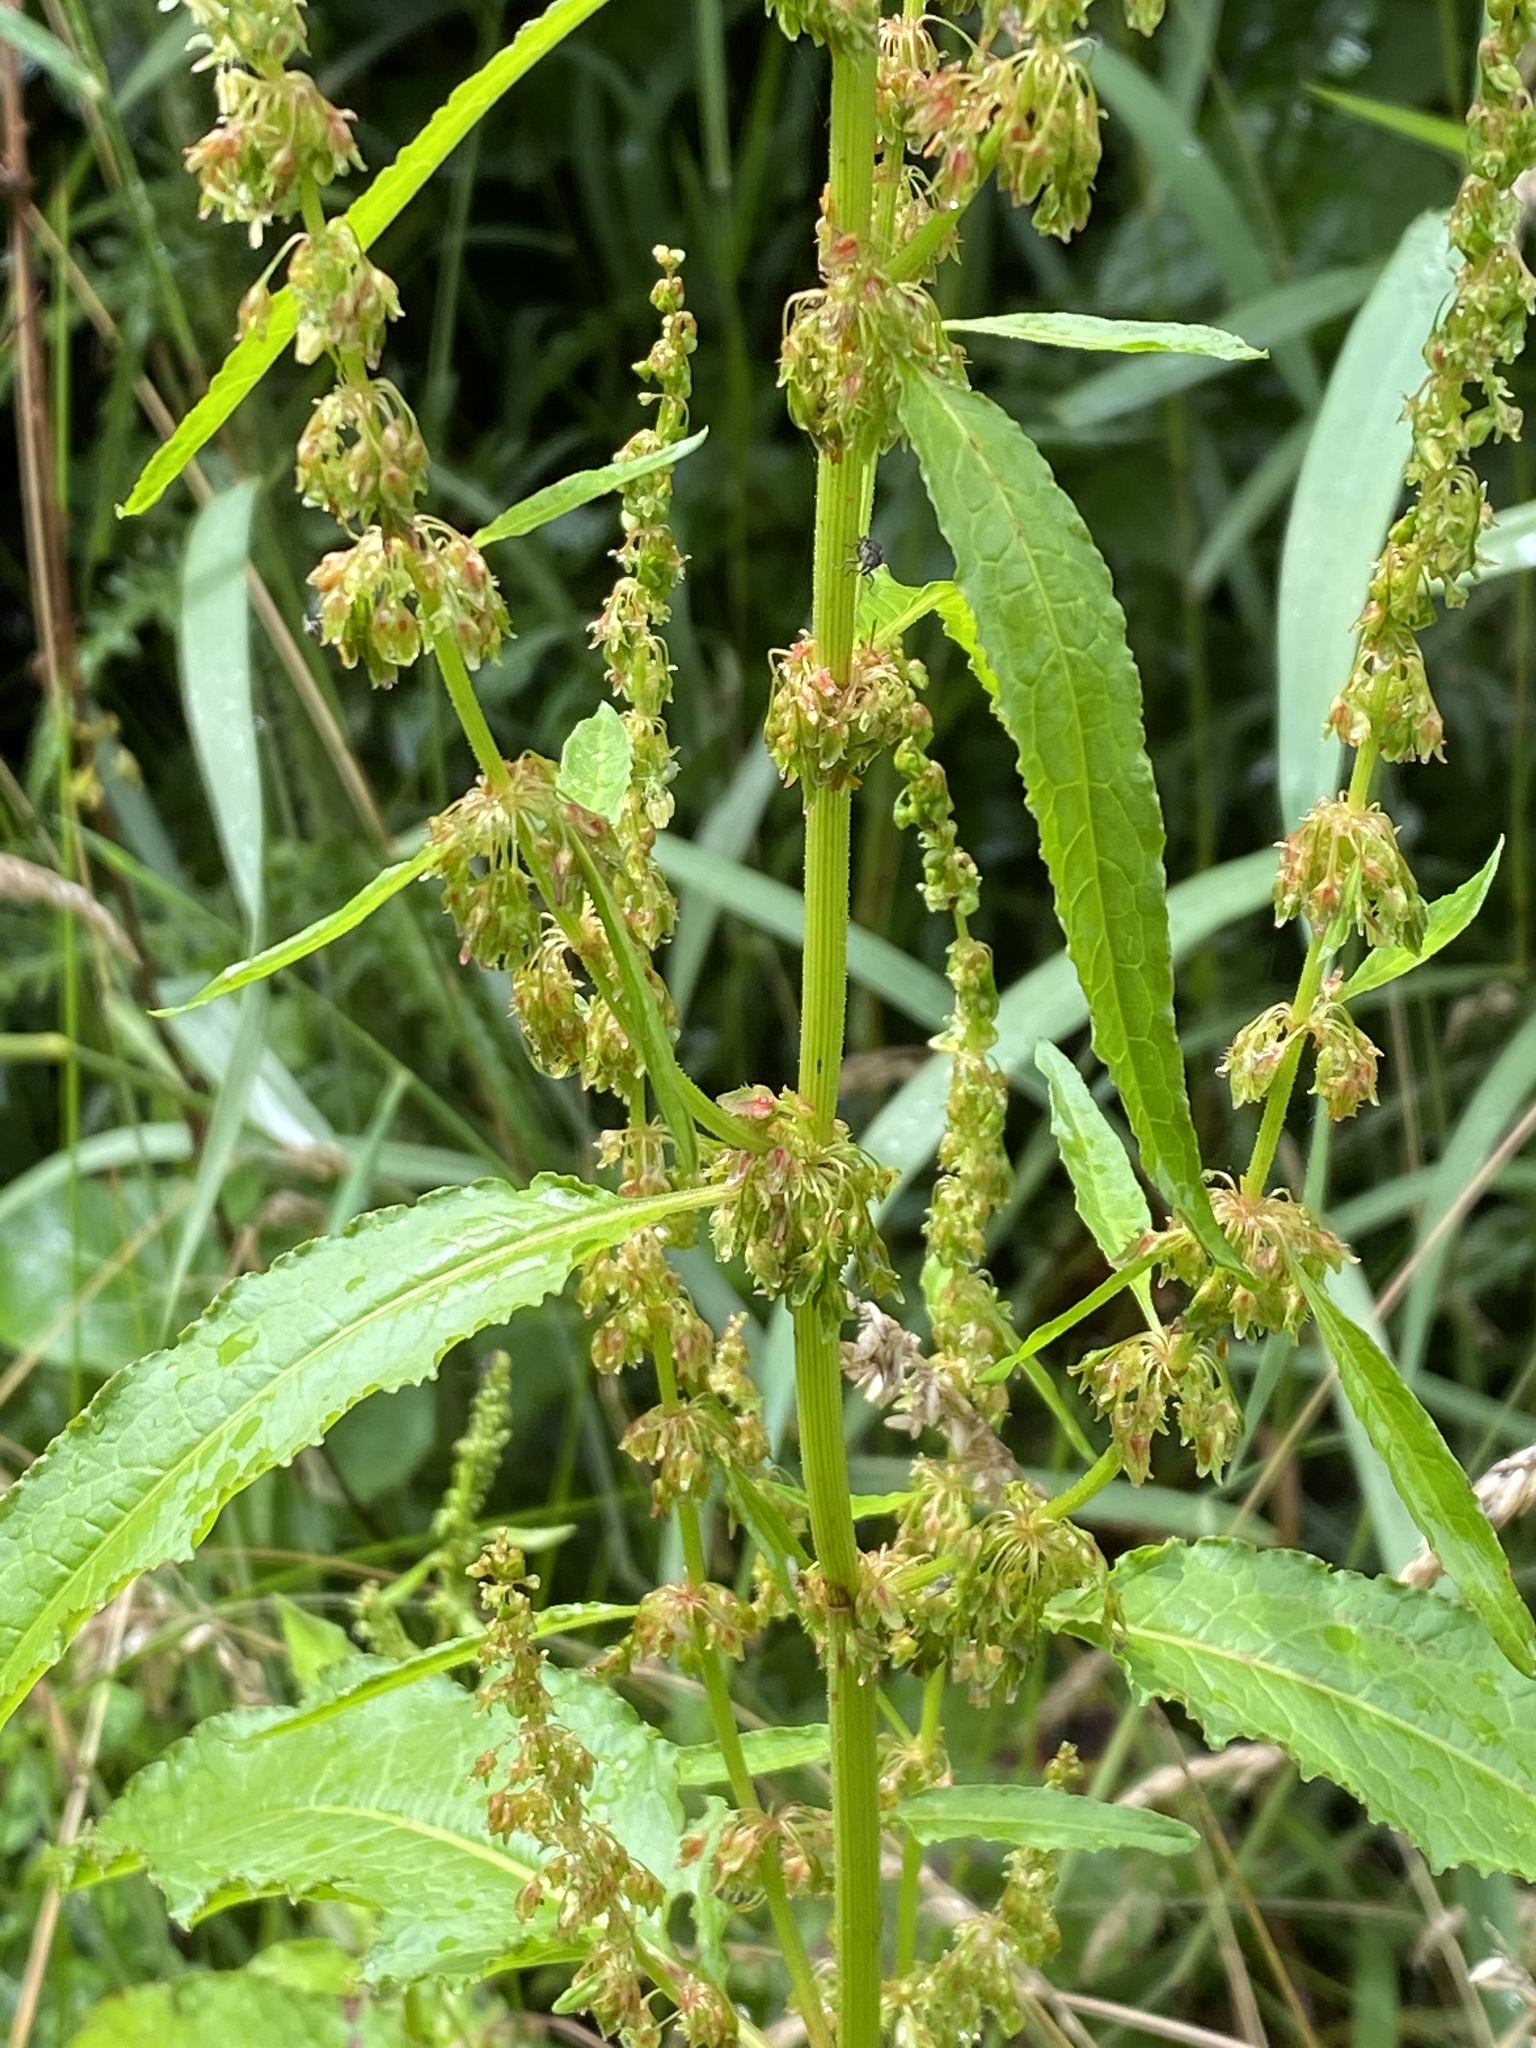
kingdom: Plantae
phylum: Tracheophyta
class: Magnoliopsida
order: Caryophyllales
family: Polygonaceae
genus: Rumex
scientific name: Rumex obtusifolius
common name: Bitter dock
